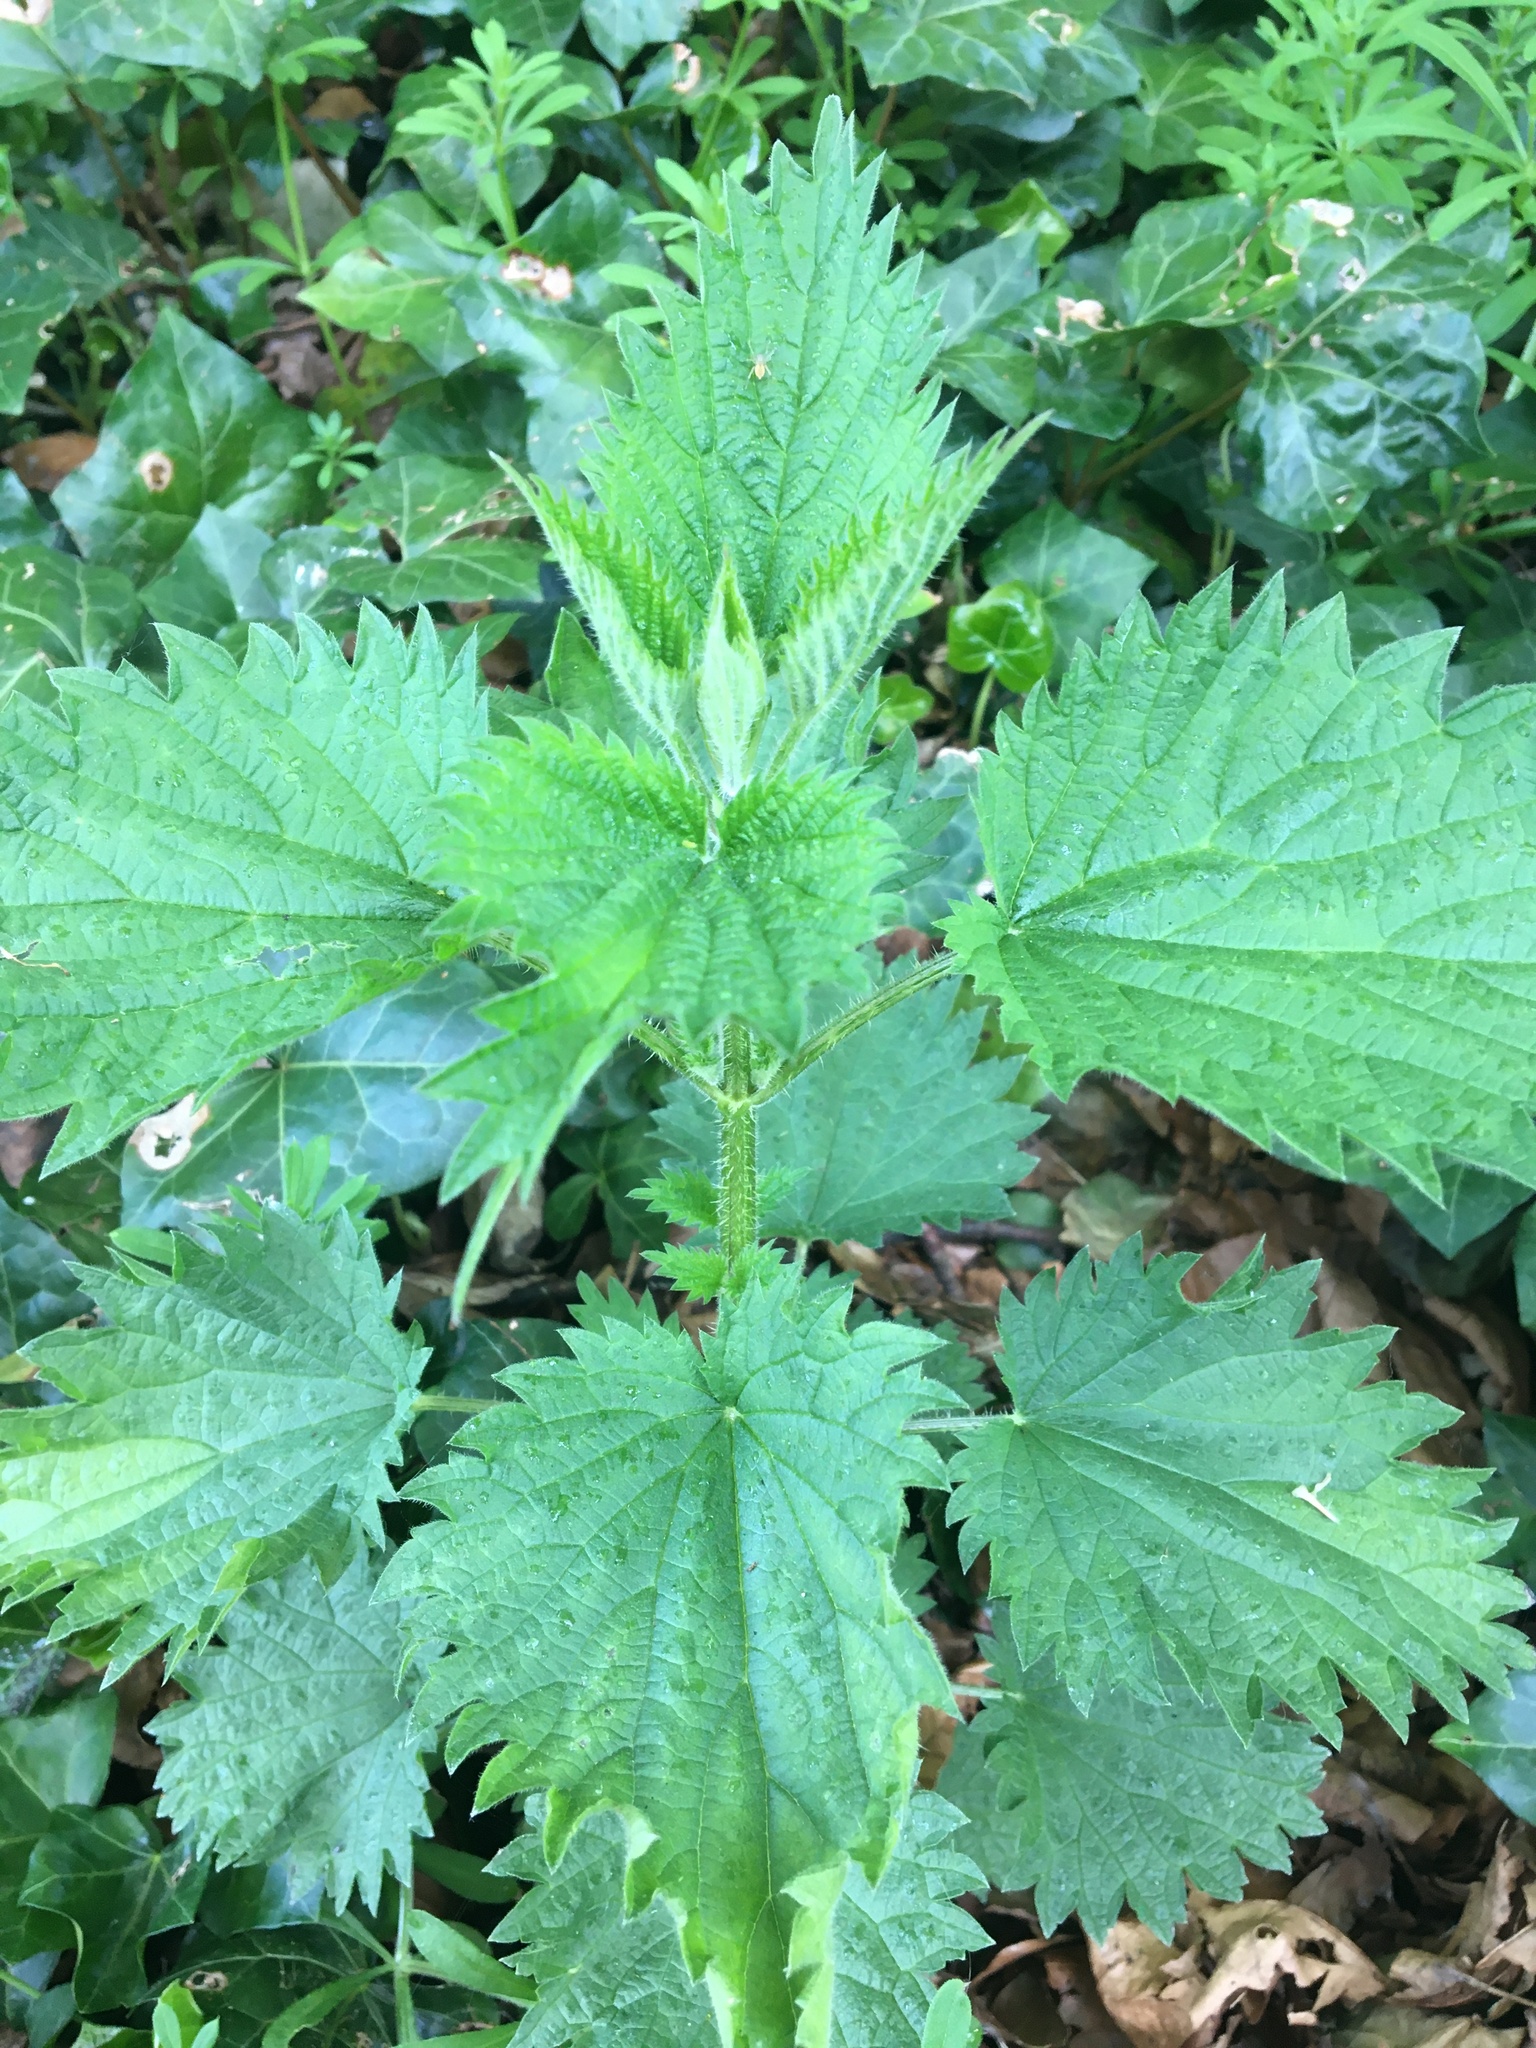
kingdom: Plantae
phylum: Tracheophyta
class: Magnoliopsida
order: Rosales
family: Urticaceae
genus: Urtica
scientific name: Urtica dioica
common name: Common nettle
